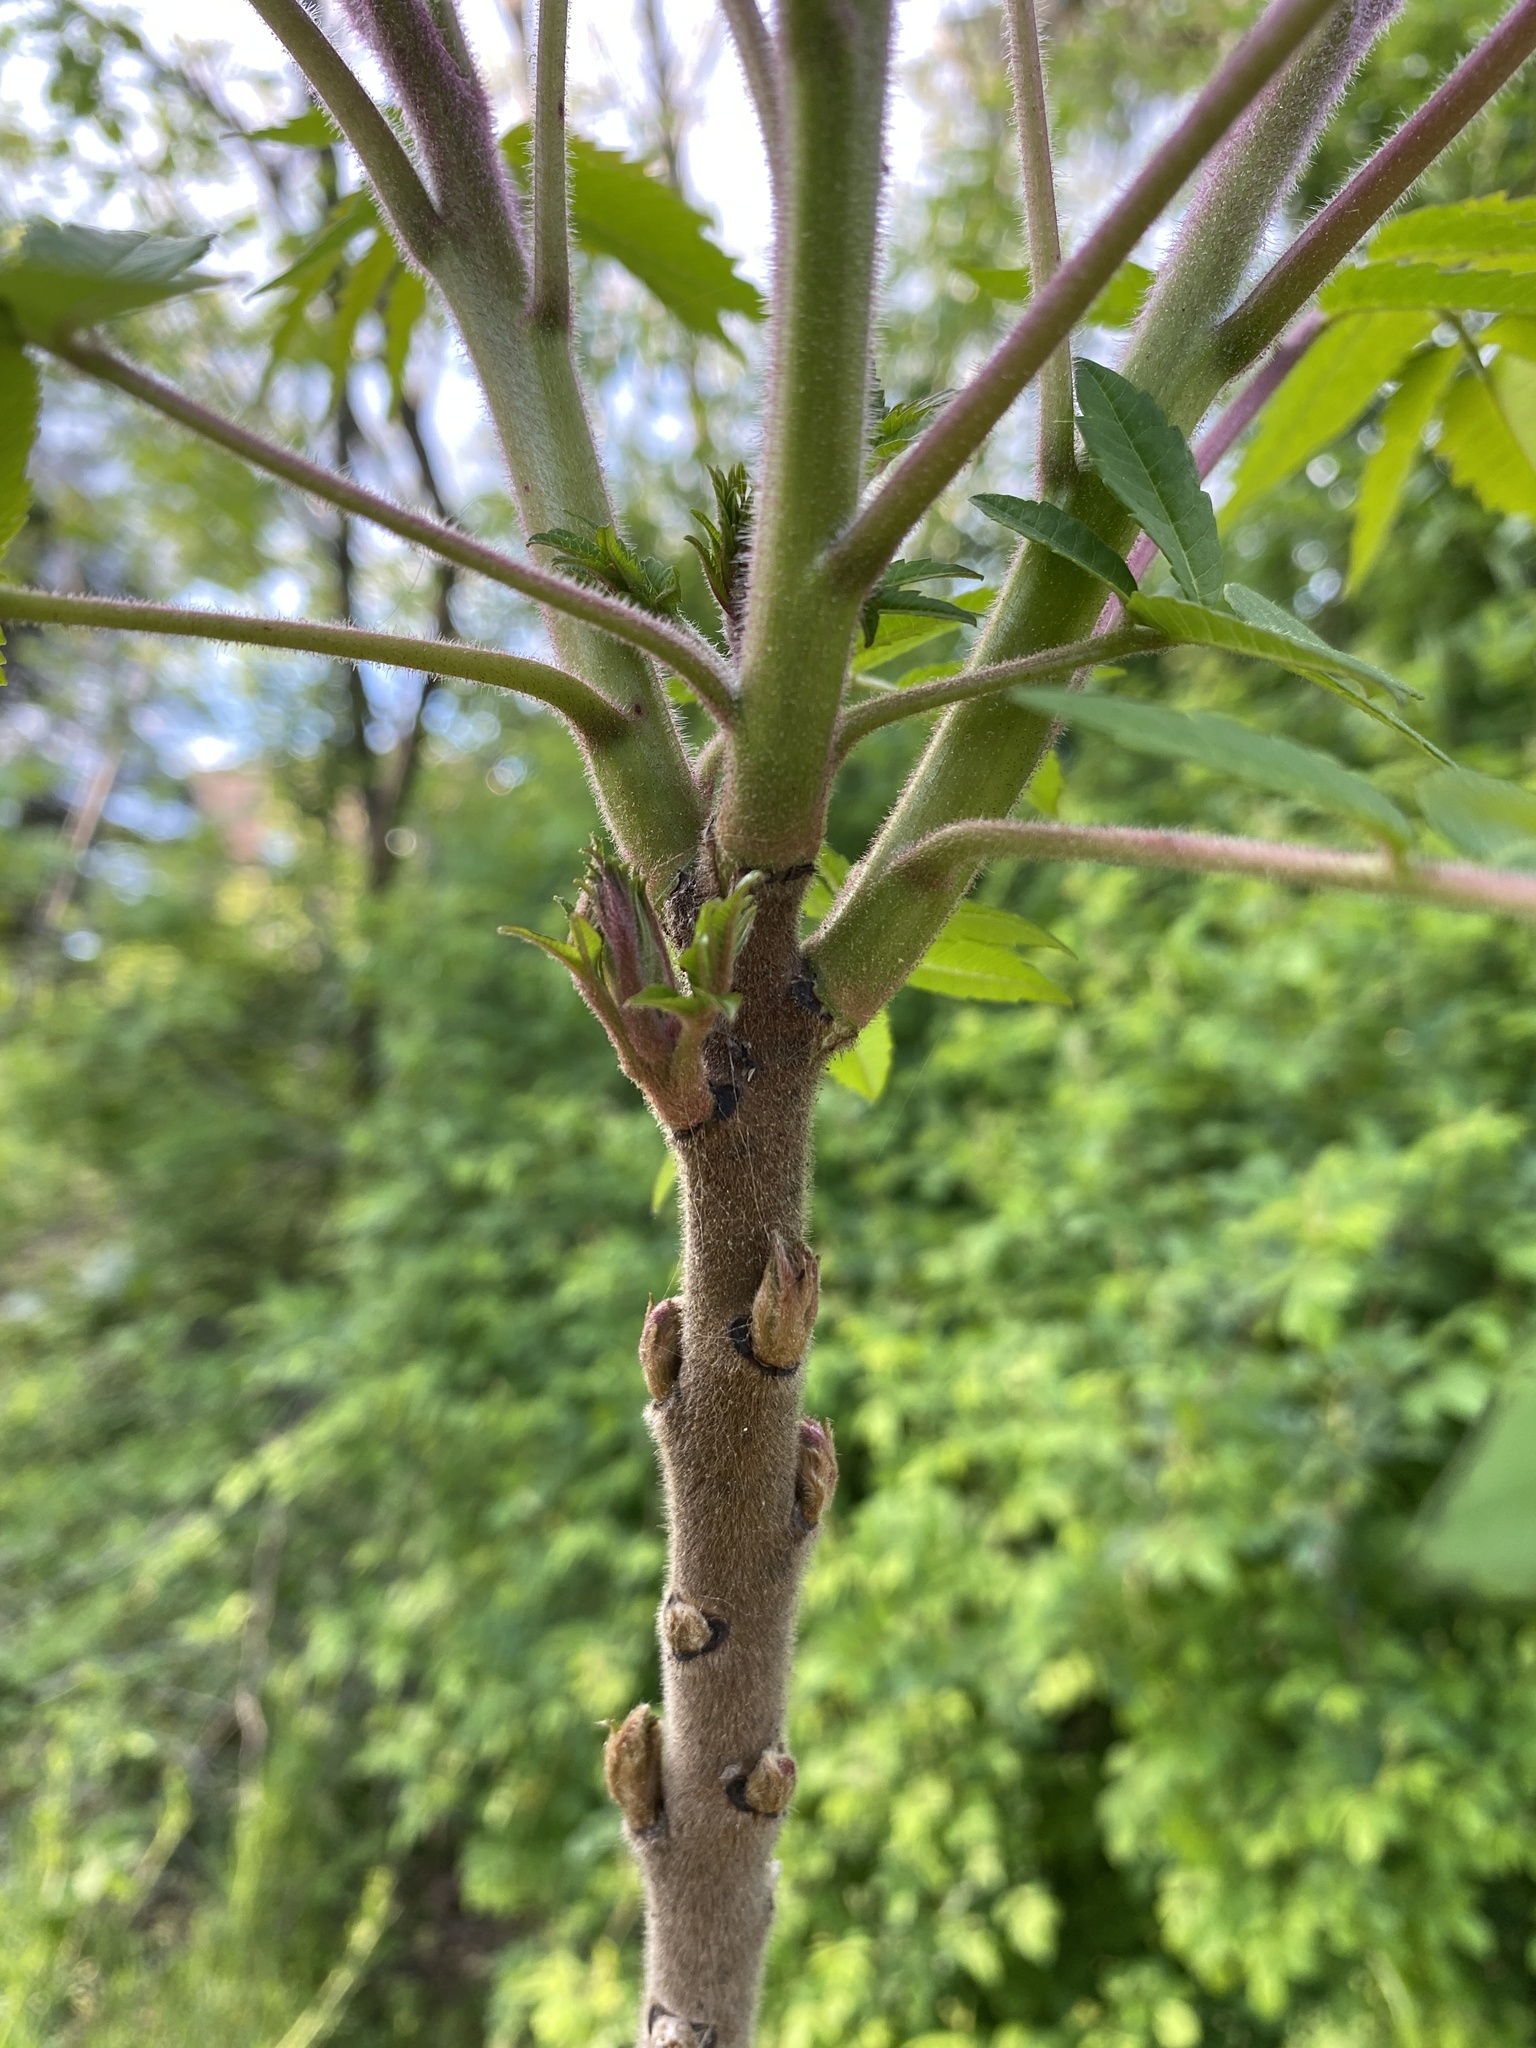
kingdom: Plantae
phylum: Tracheophyta
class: Magnoliopsida
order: Sapindales
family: Anacardiaceae
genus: Rhus
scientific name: Rhus typhina
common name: Staghorn sumac
